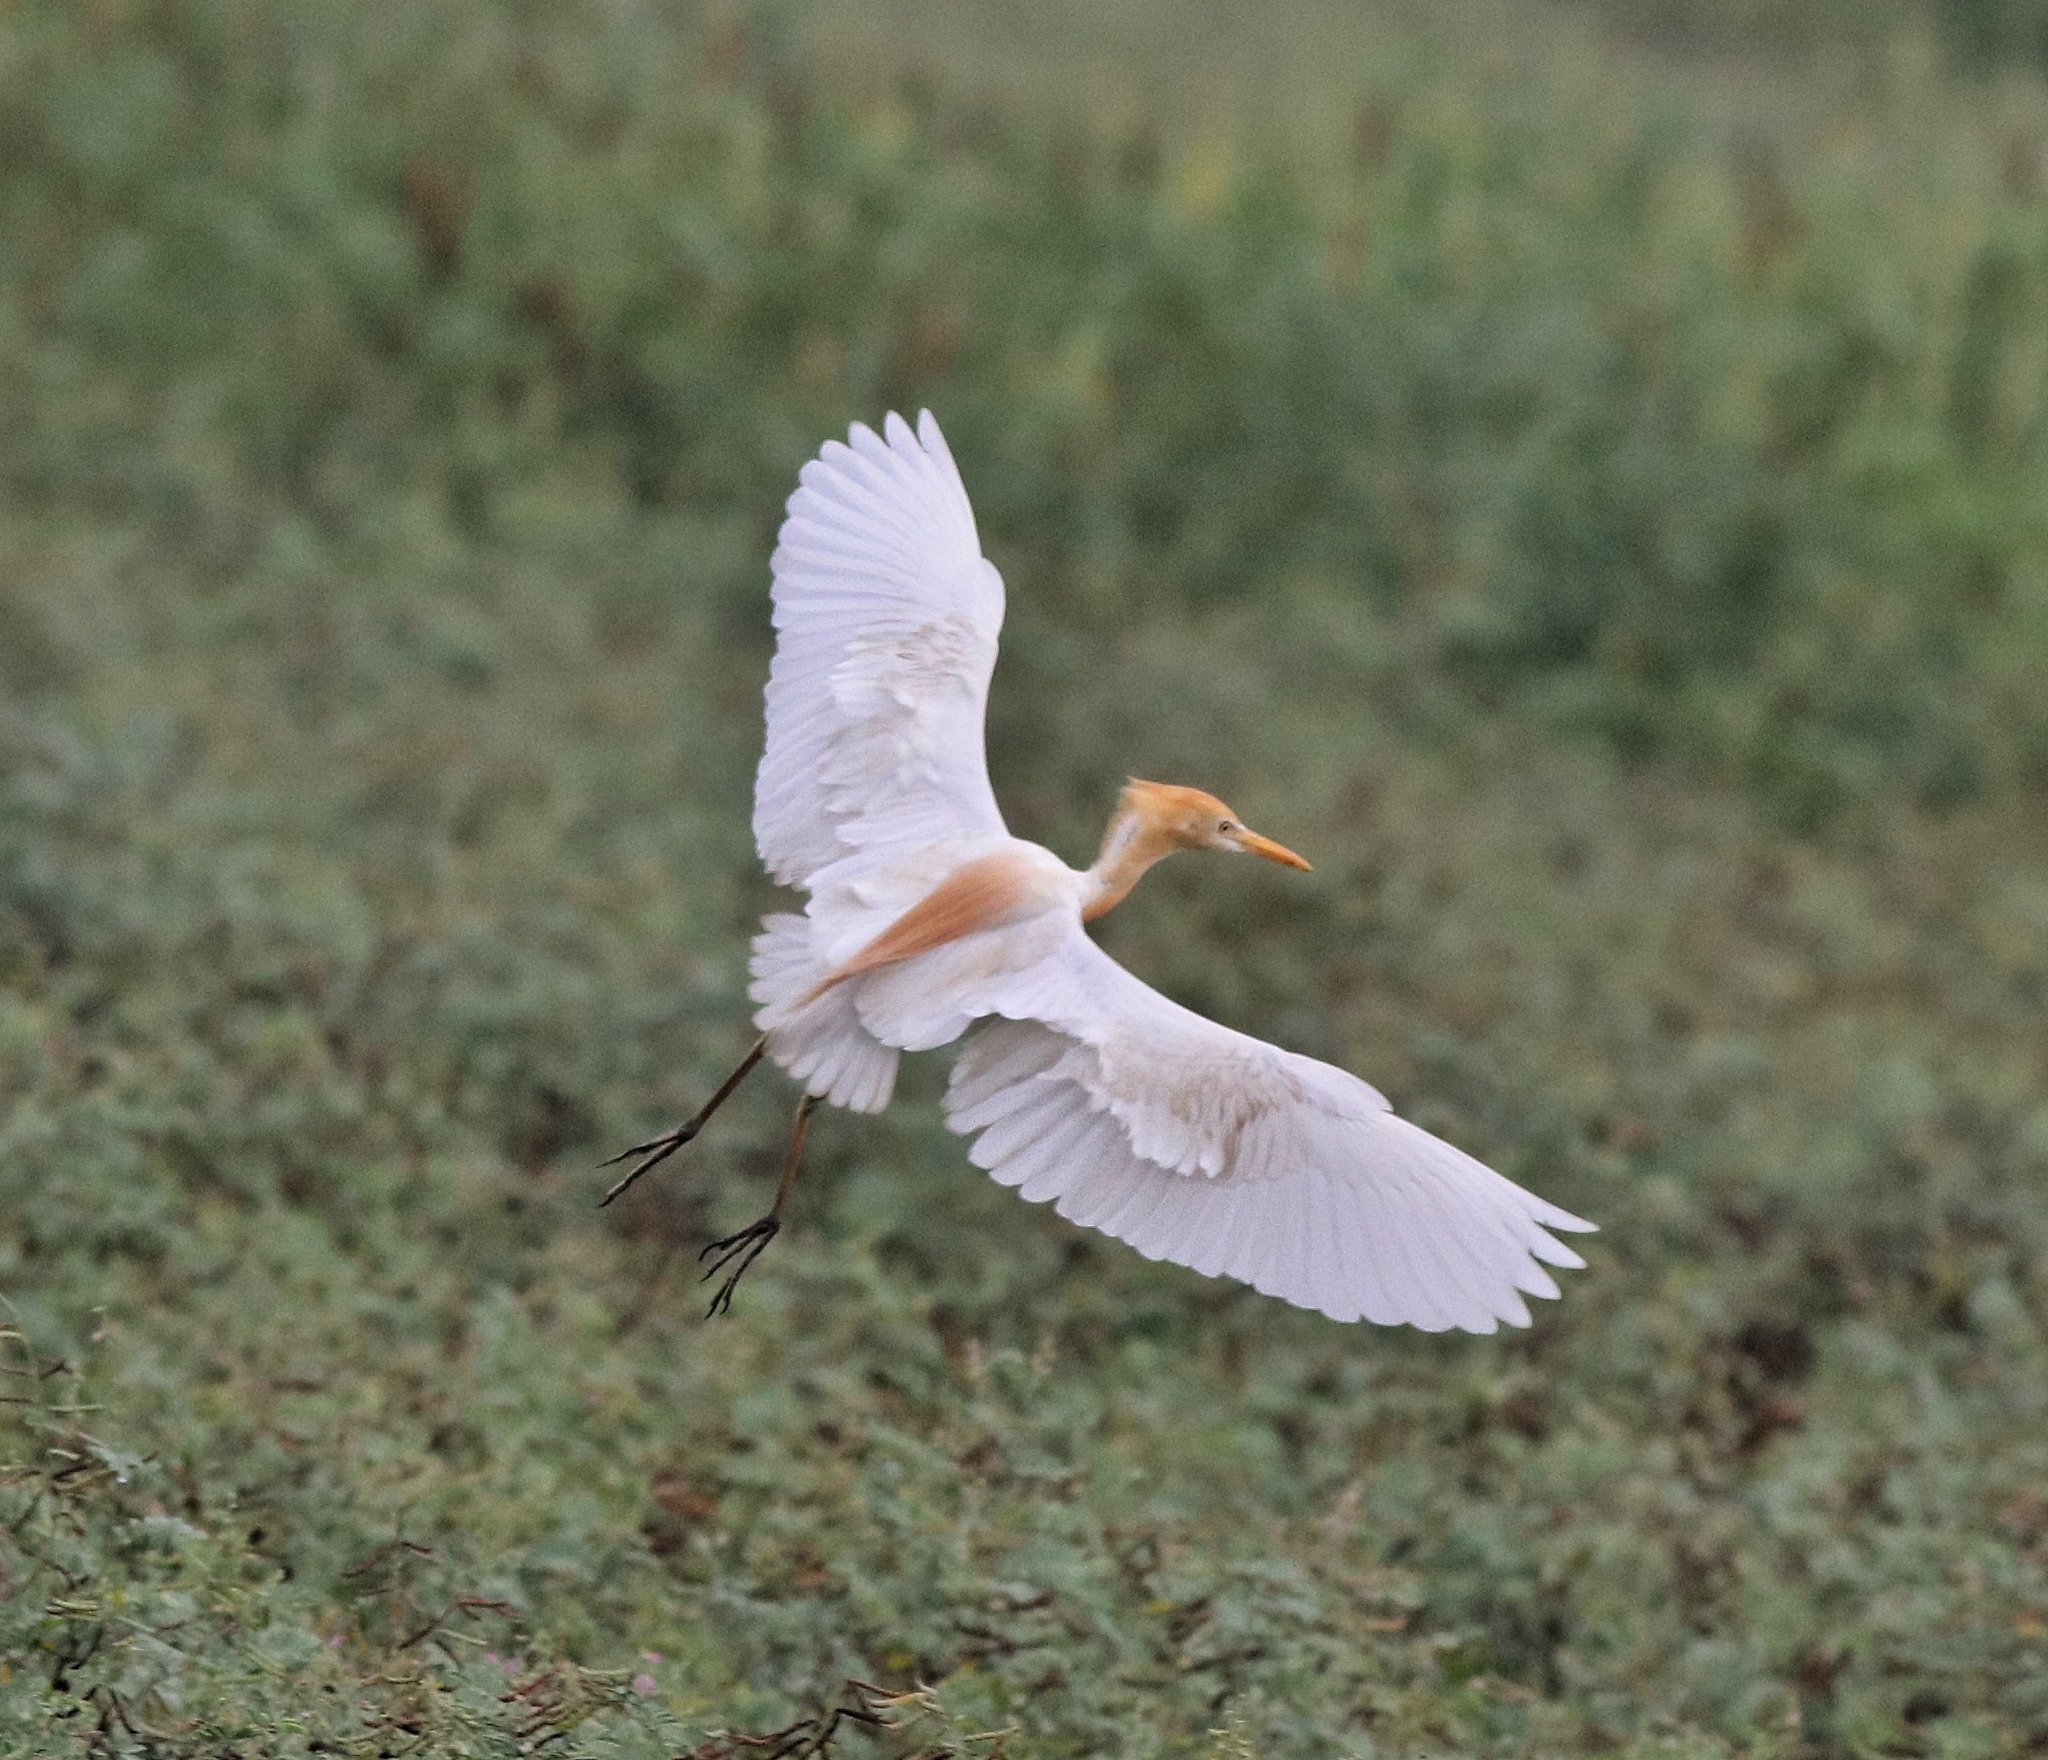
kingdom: Animalia
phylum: Chordata
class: Aves
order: Pelecaniformes
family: Ardeidae
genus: Bubulcus
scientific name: Bubulcus coromandus
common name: Eastern cattle egret
